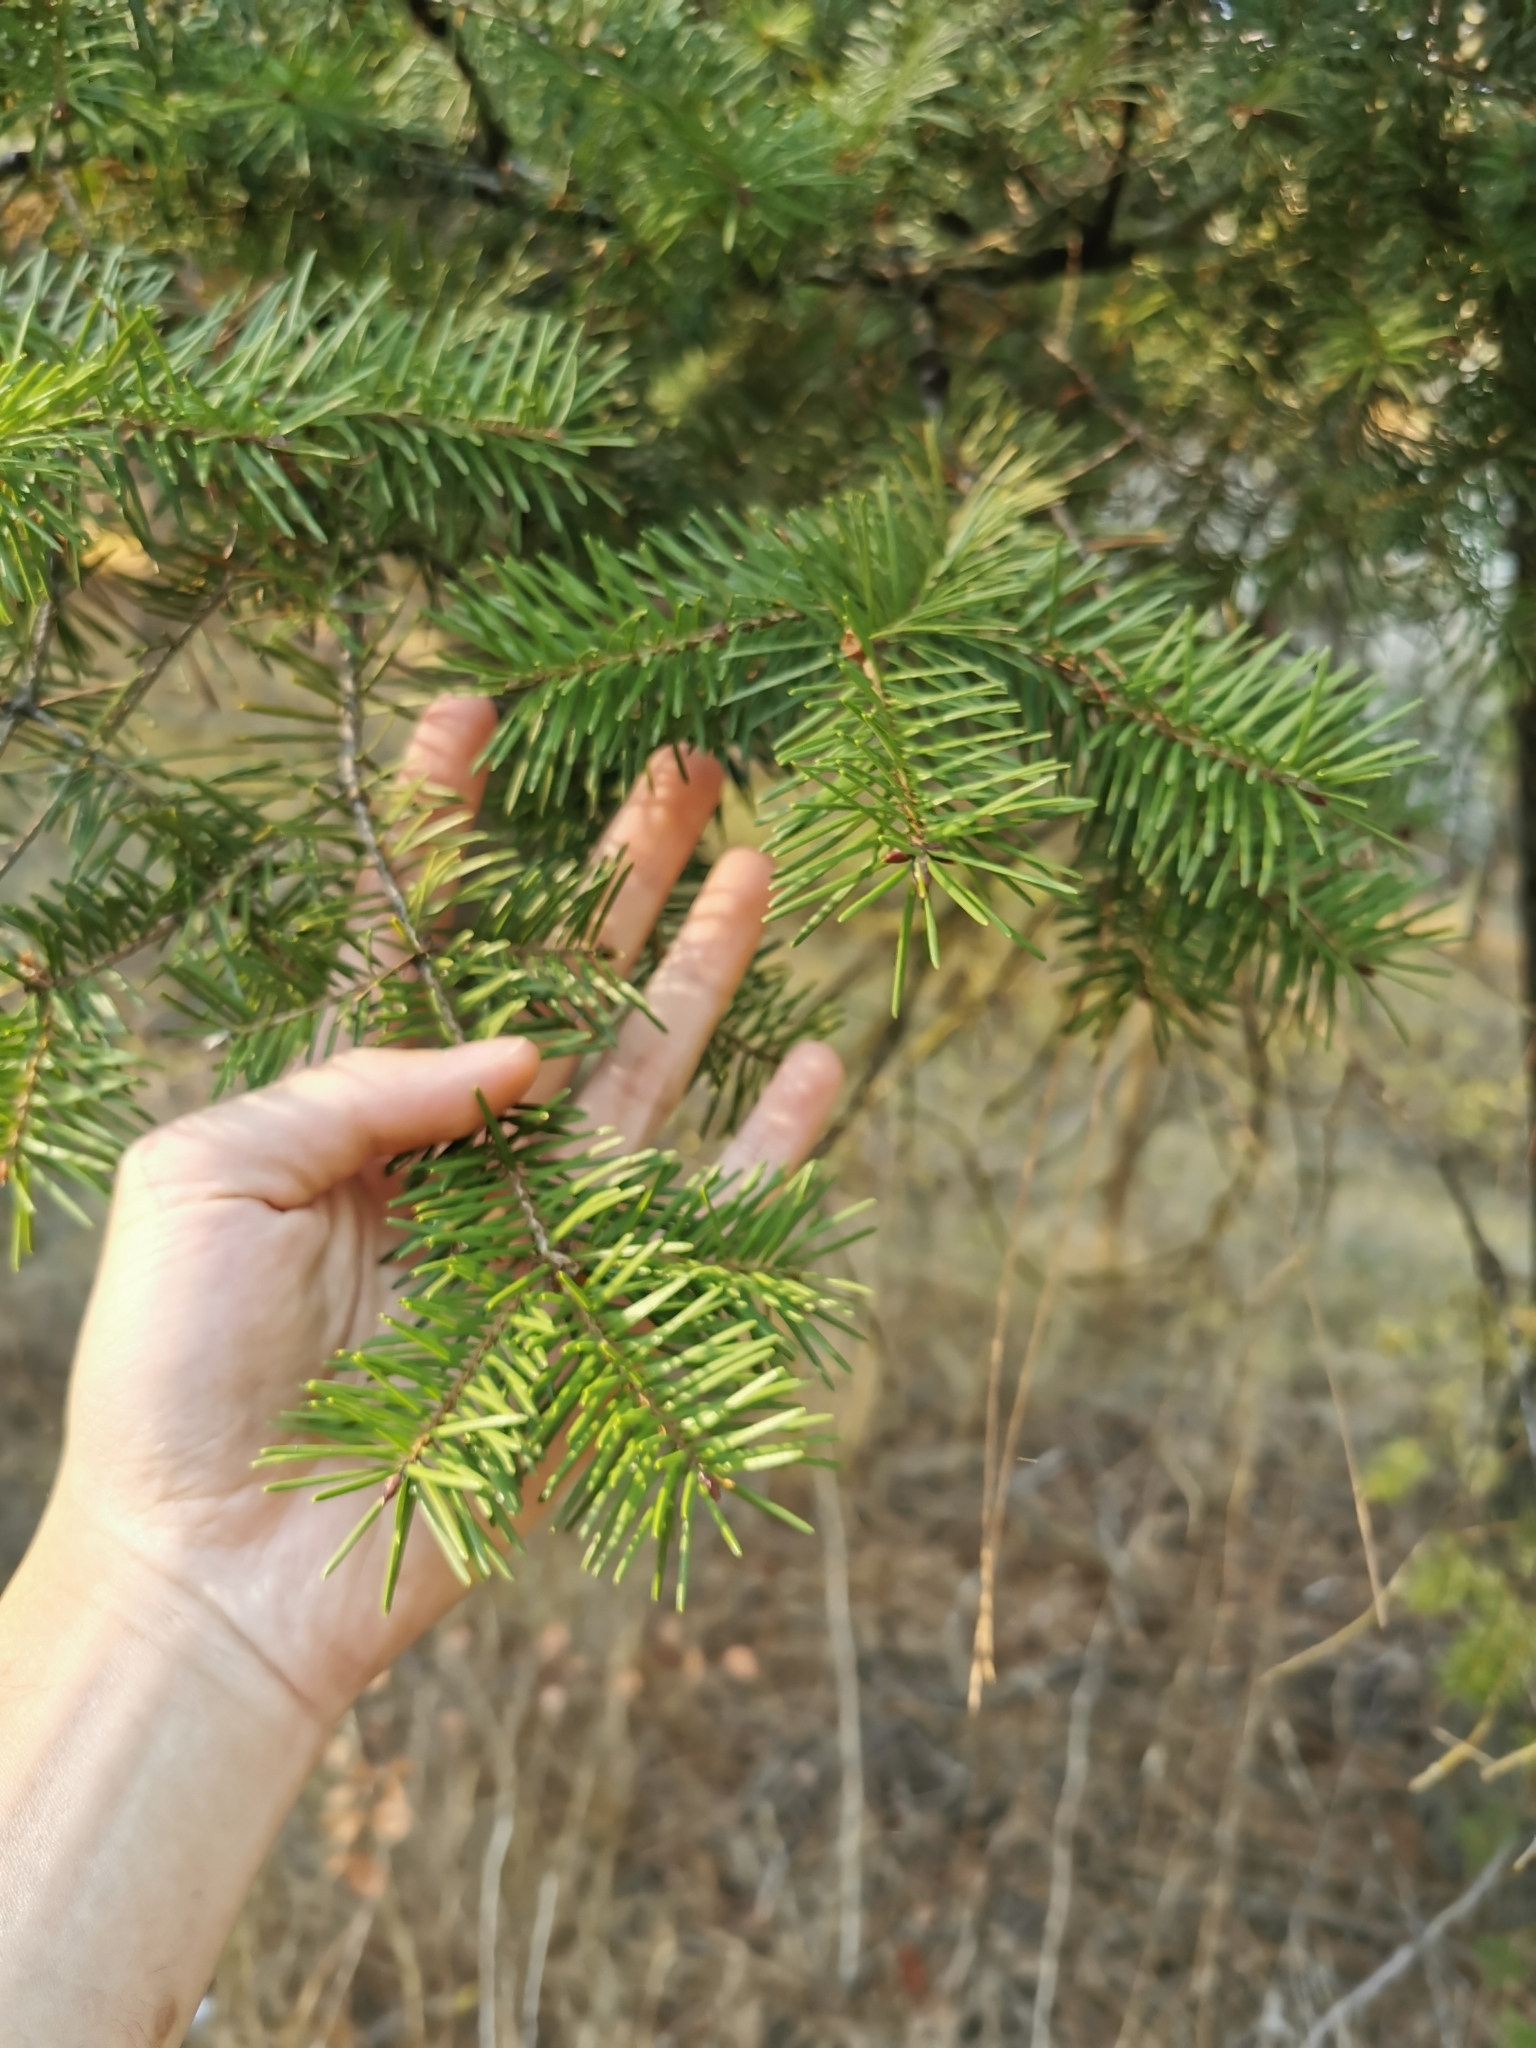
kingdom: Plantae
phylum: Tracheophyta
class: Pinopsida
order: Pinales
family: Pinaceae
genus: Pseudotsuga
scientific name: Pseudotsuga menziesii
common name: Douglas fir
